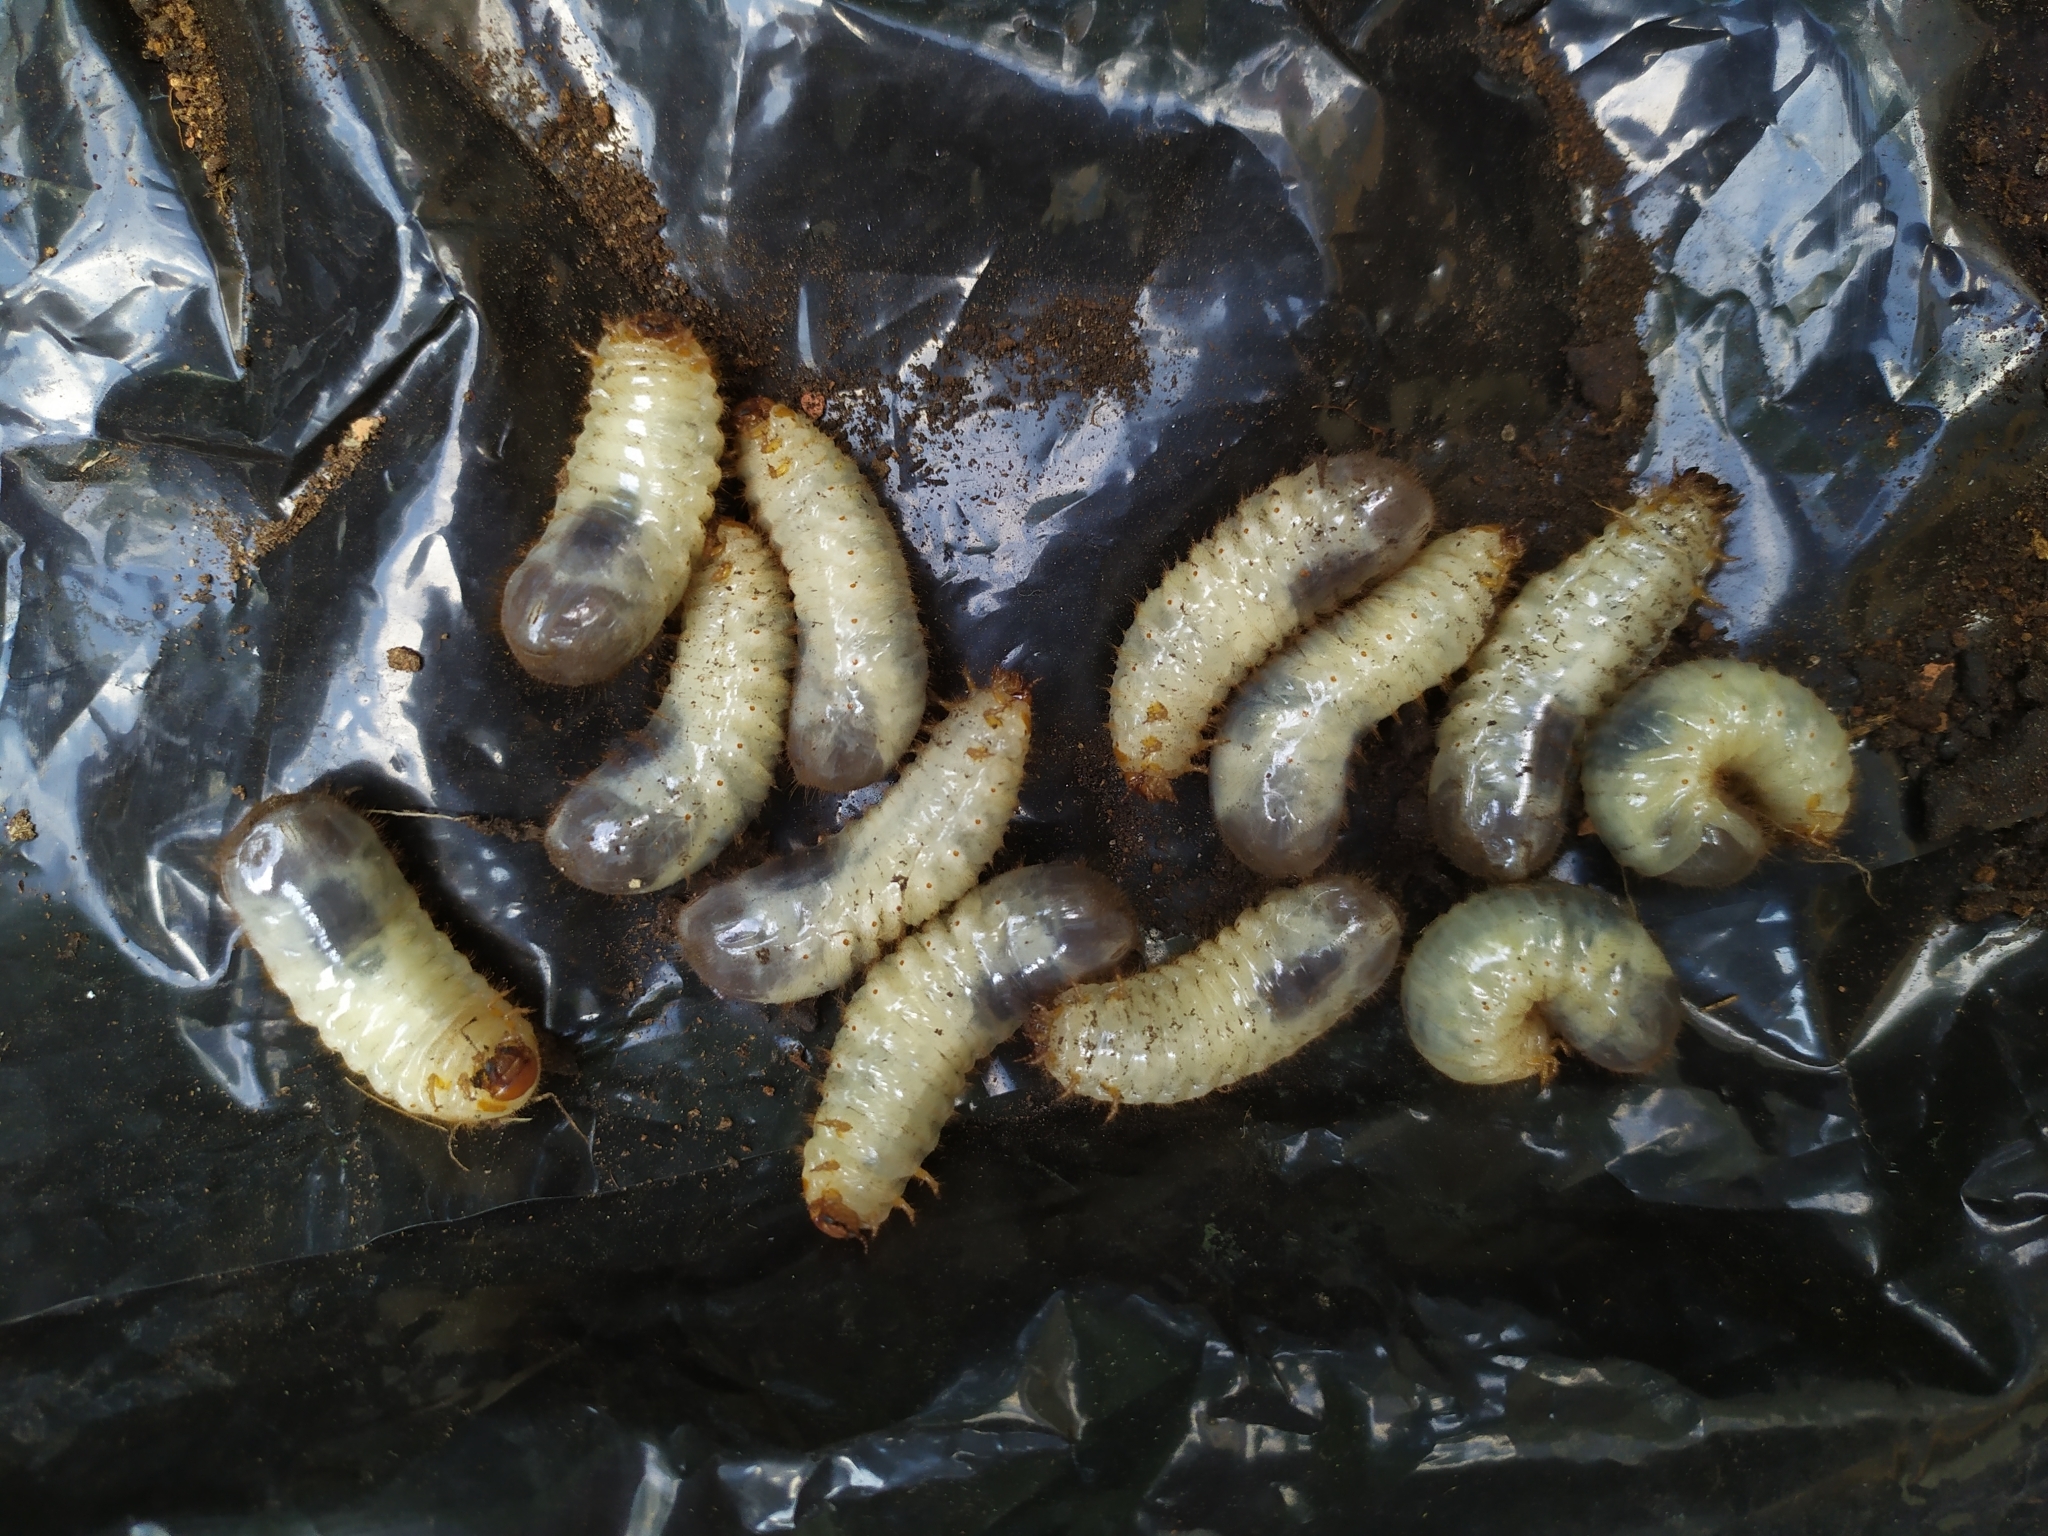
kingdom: Animalia
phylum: Arthropoda
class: Insecta
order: Coleoptera
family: Scarabaeidae
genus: Cetonia
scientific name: Cetonia aurata
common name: Rose chafer
